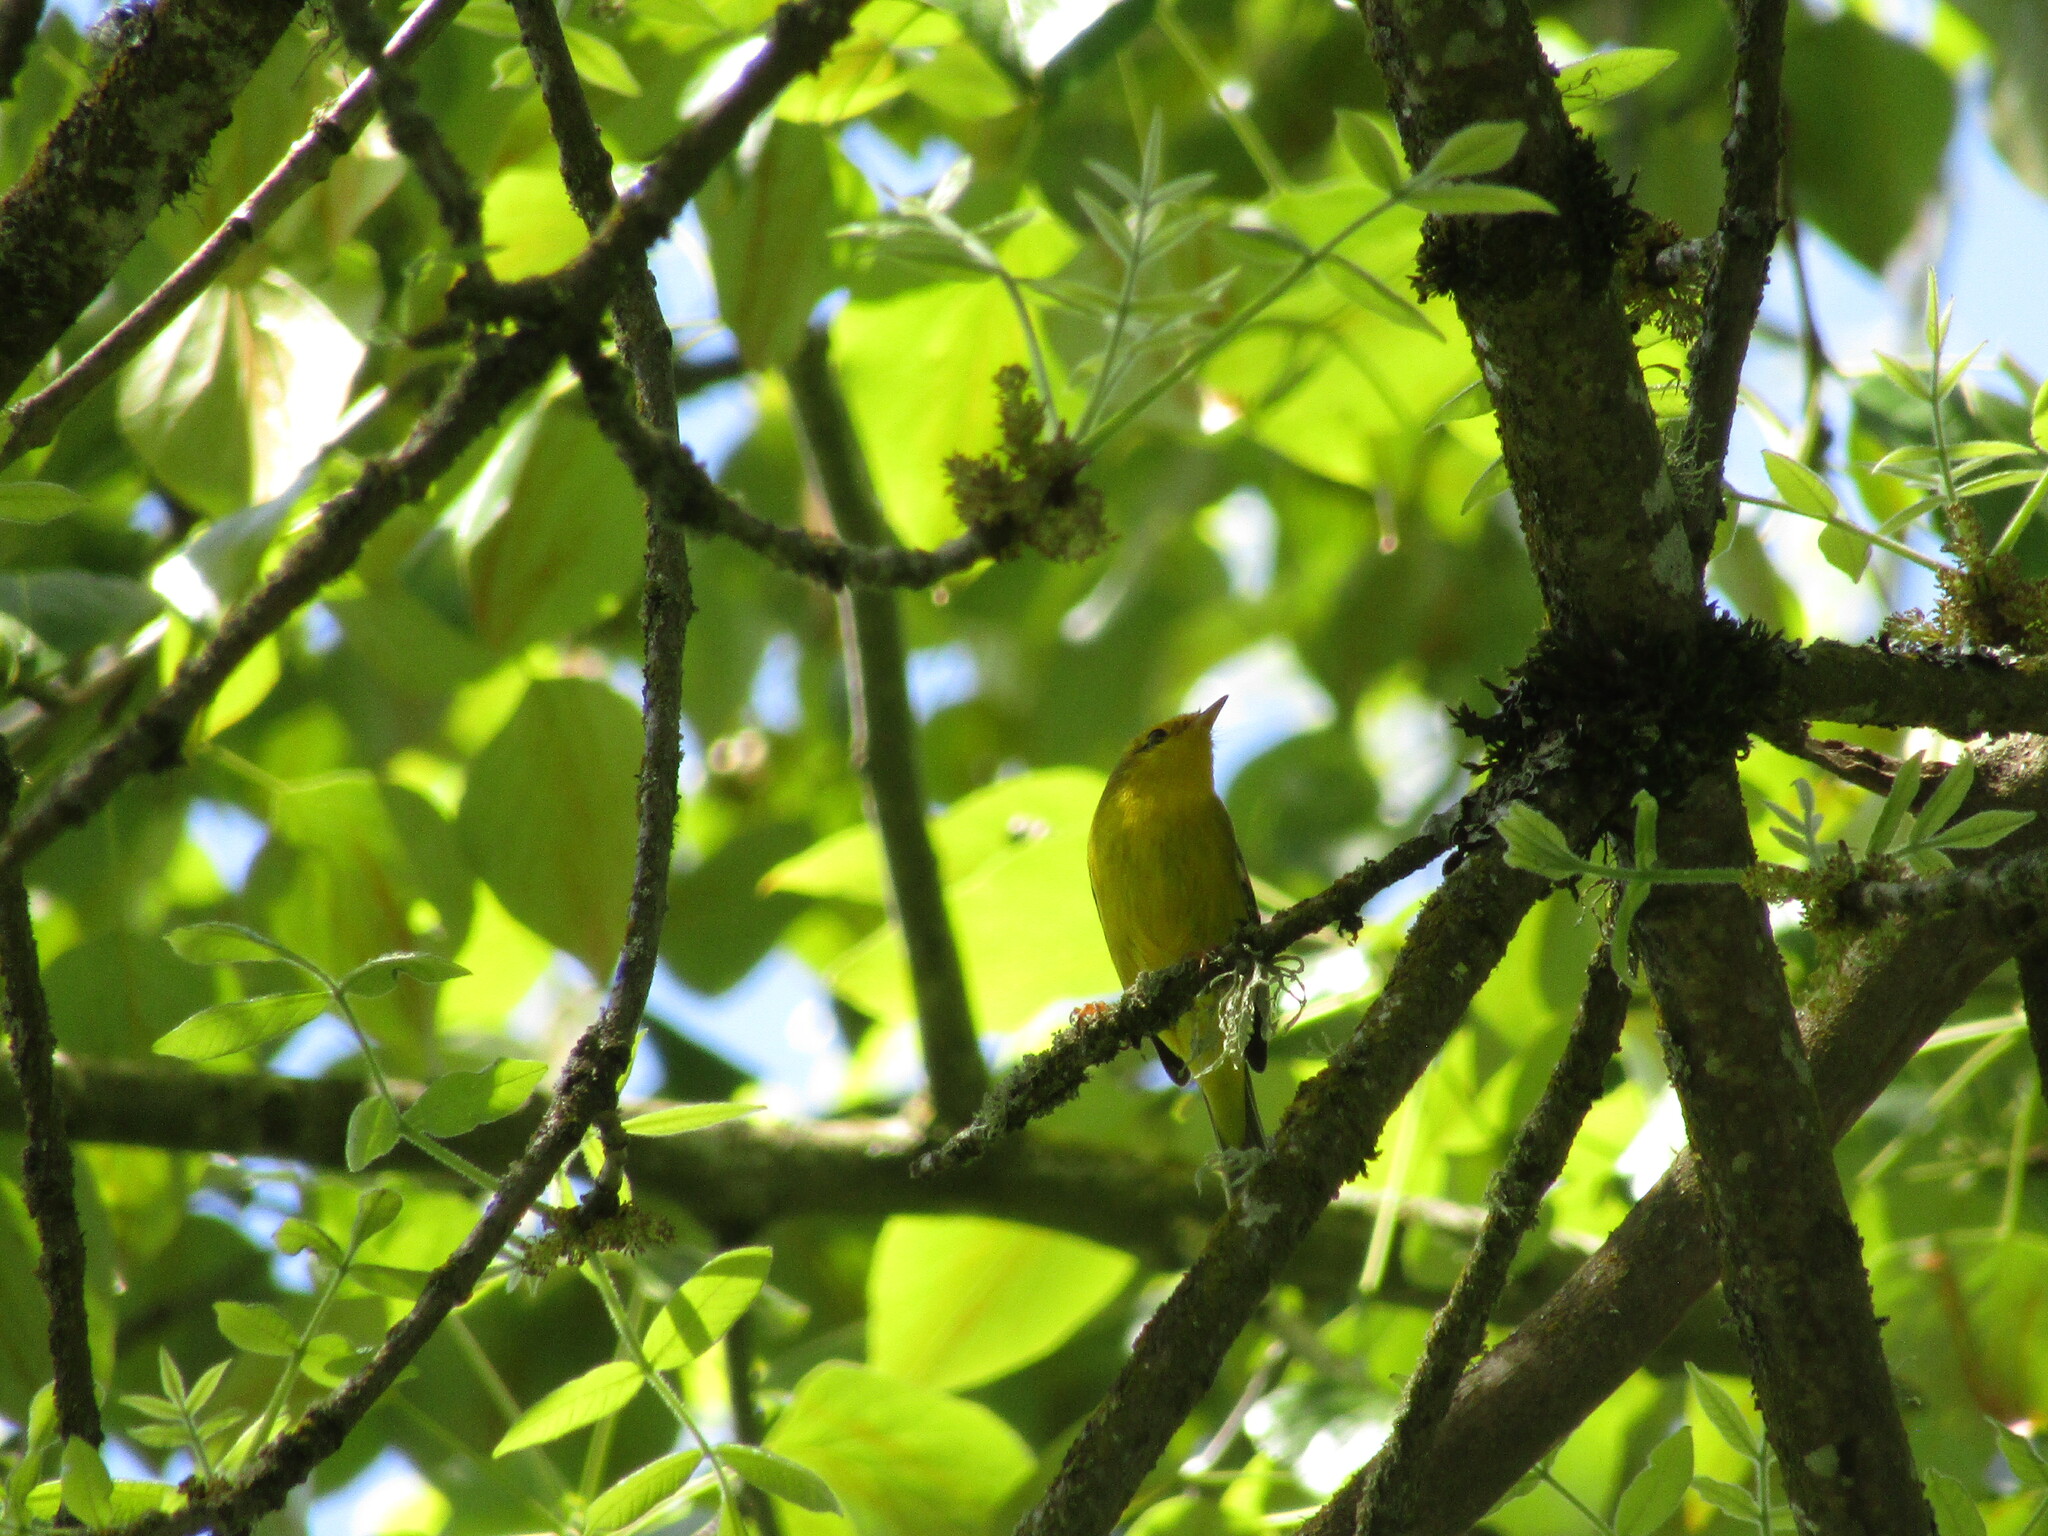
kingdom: Animalia
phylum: Chordata
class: Aves
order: Passeriformes
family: Parulidae
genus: Cardellina
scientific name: Cardellina pusilla
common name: Wilson's warbler
